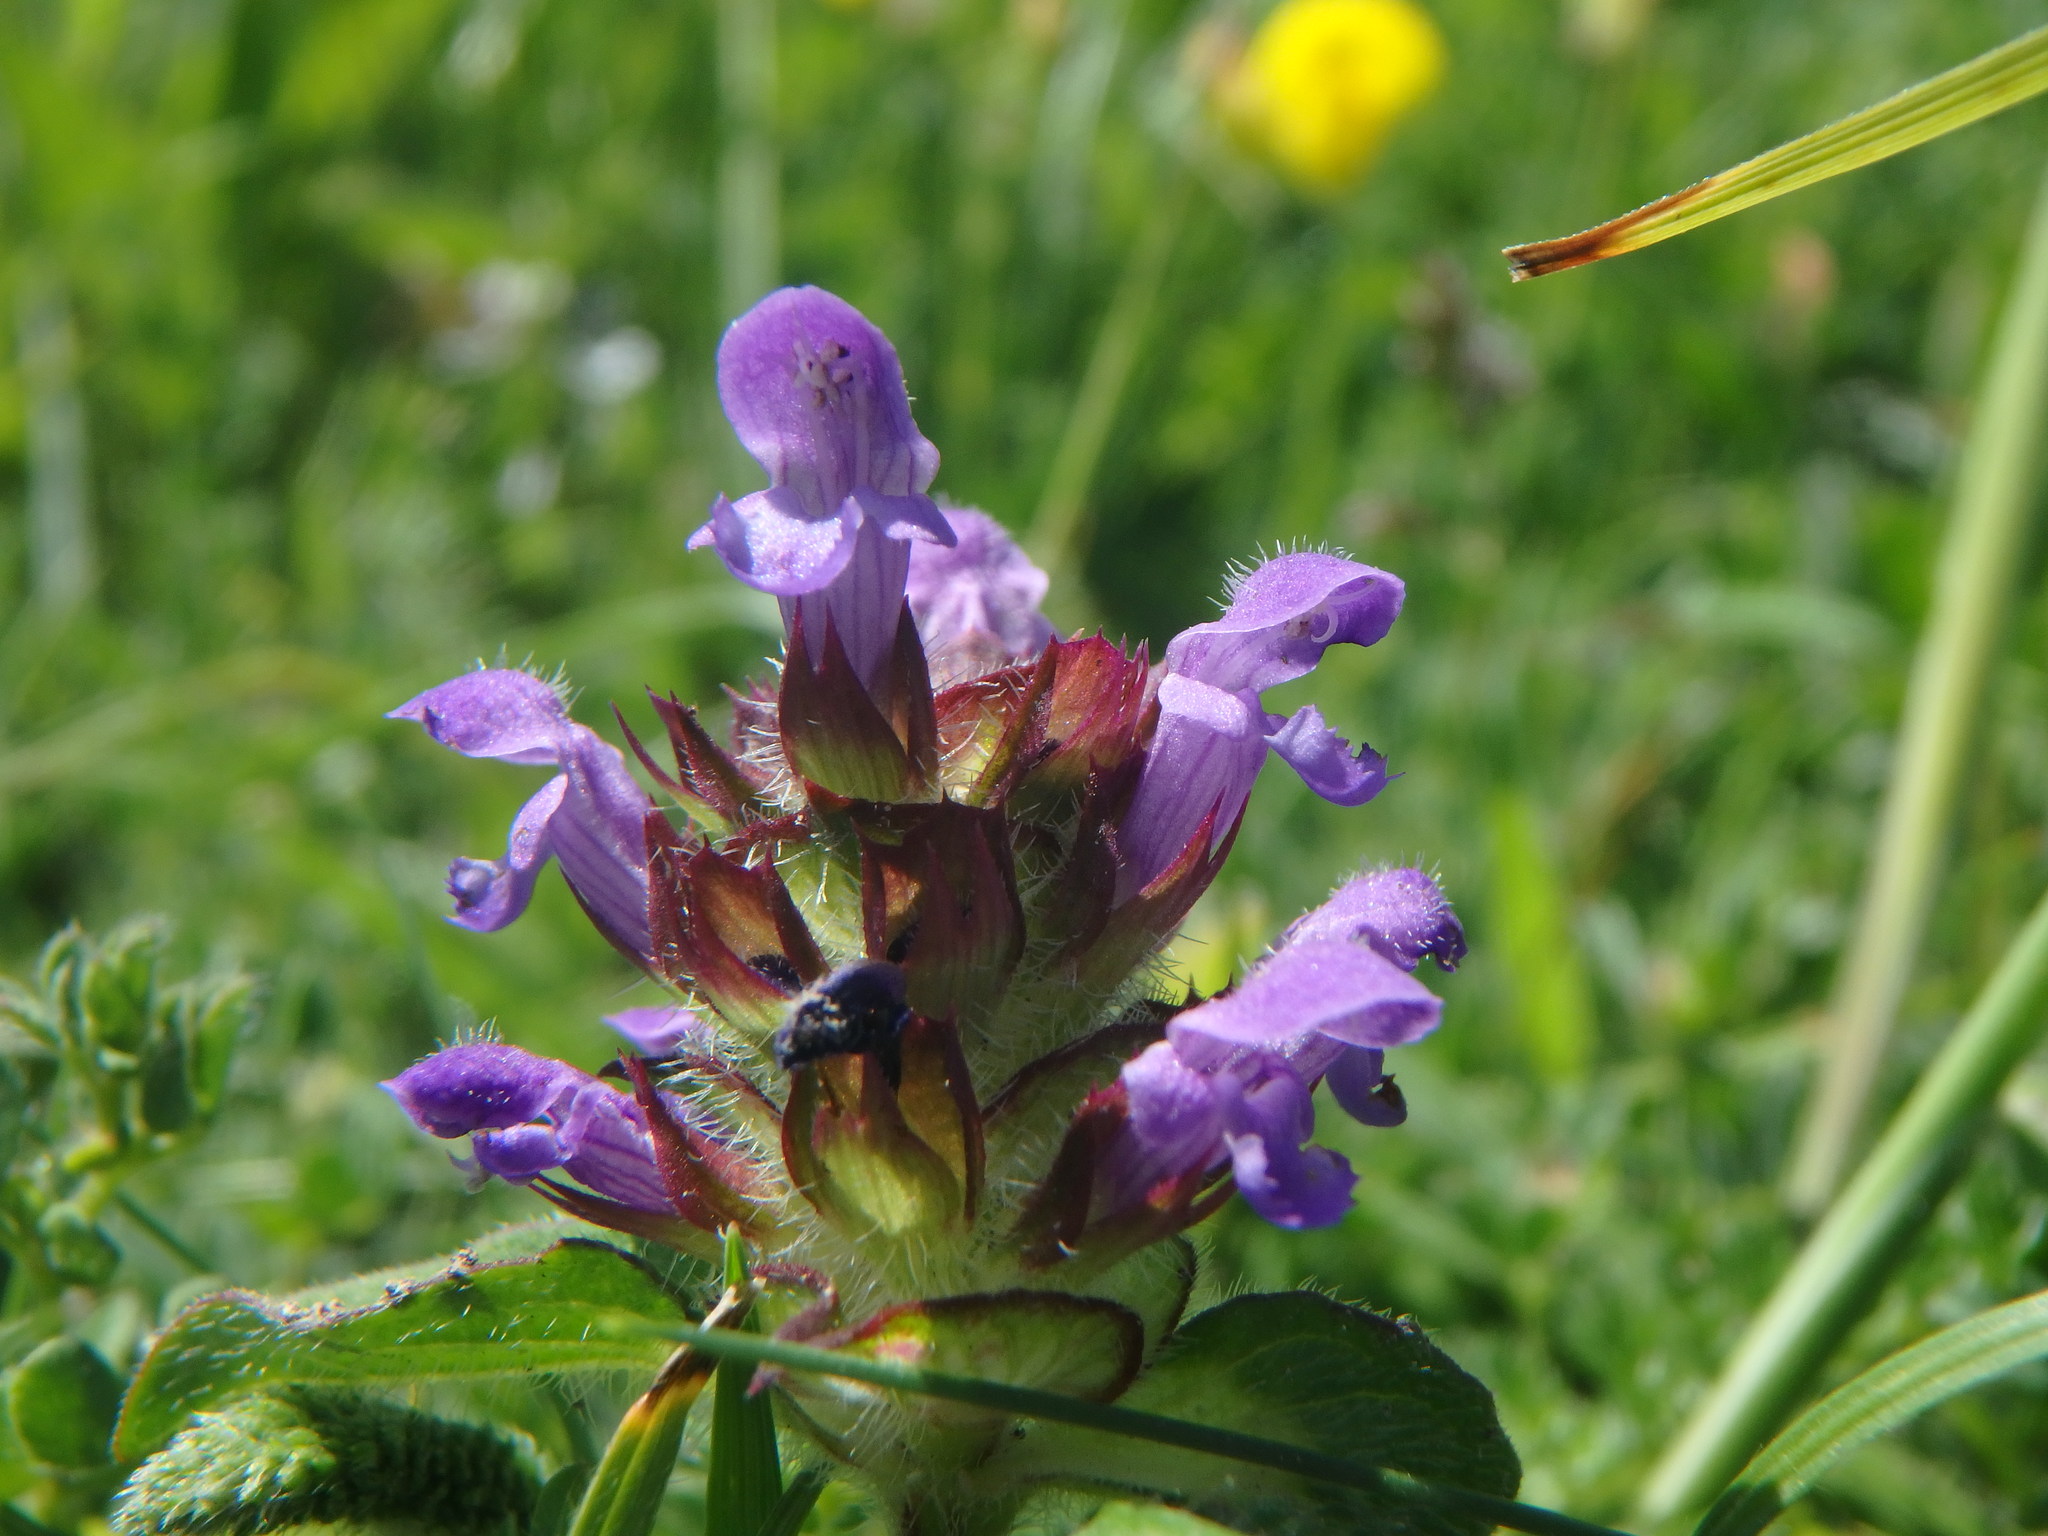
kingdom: Plantae
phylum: Tracheophyta
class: Magnoliopsida
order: Lamiales
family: Lamiaceae
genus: Prunella
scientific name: Prunella vulgaris
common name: Heal-all
